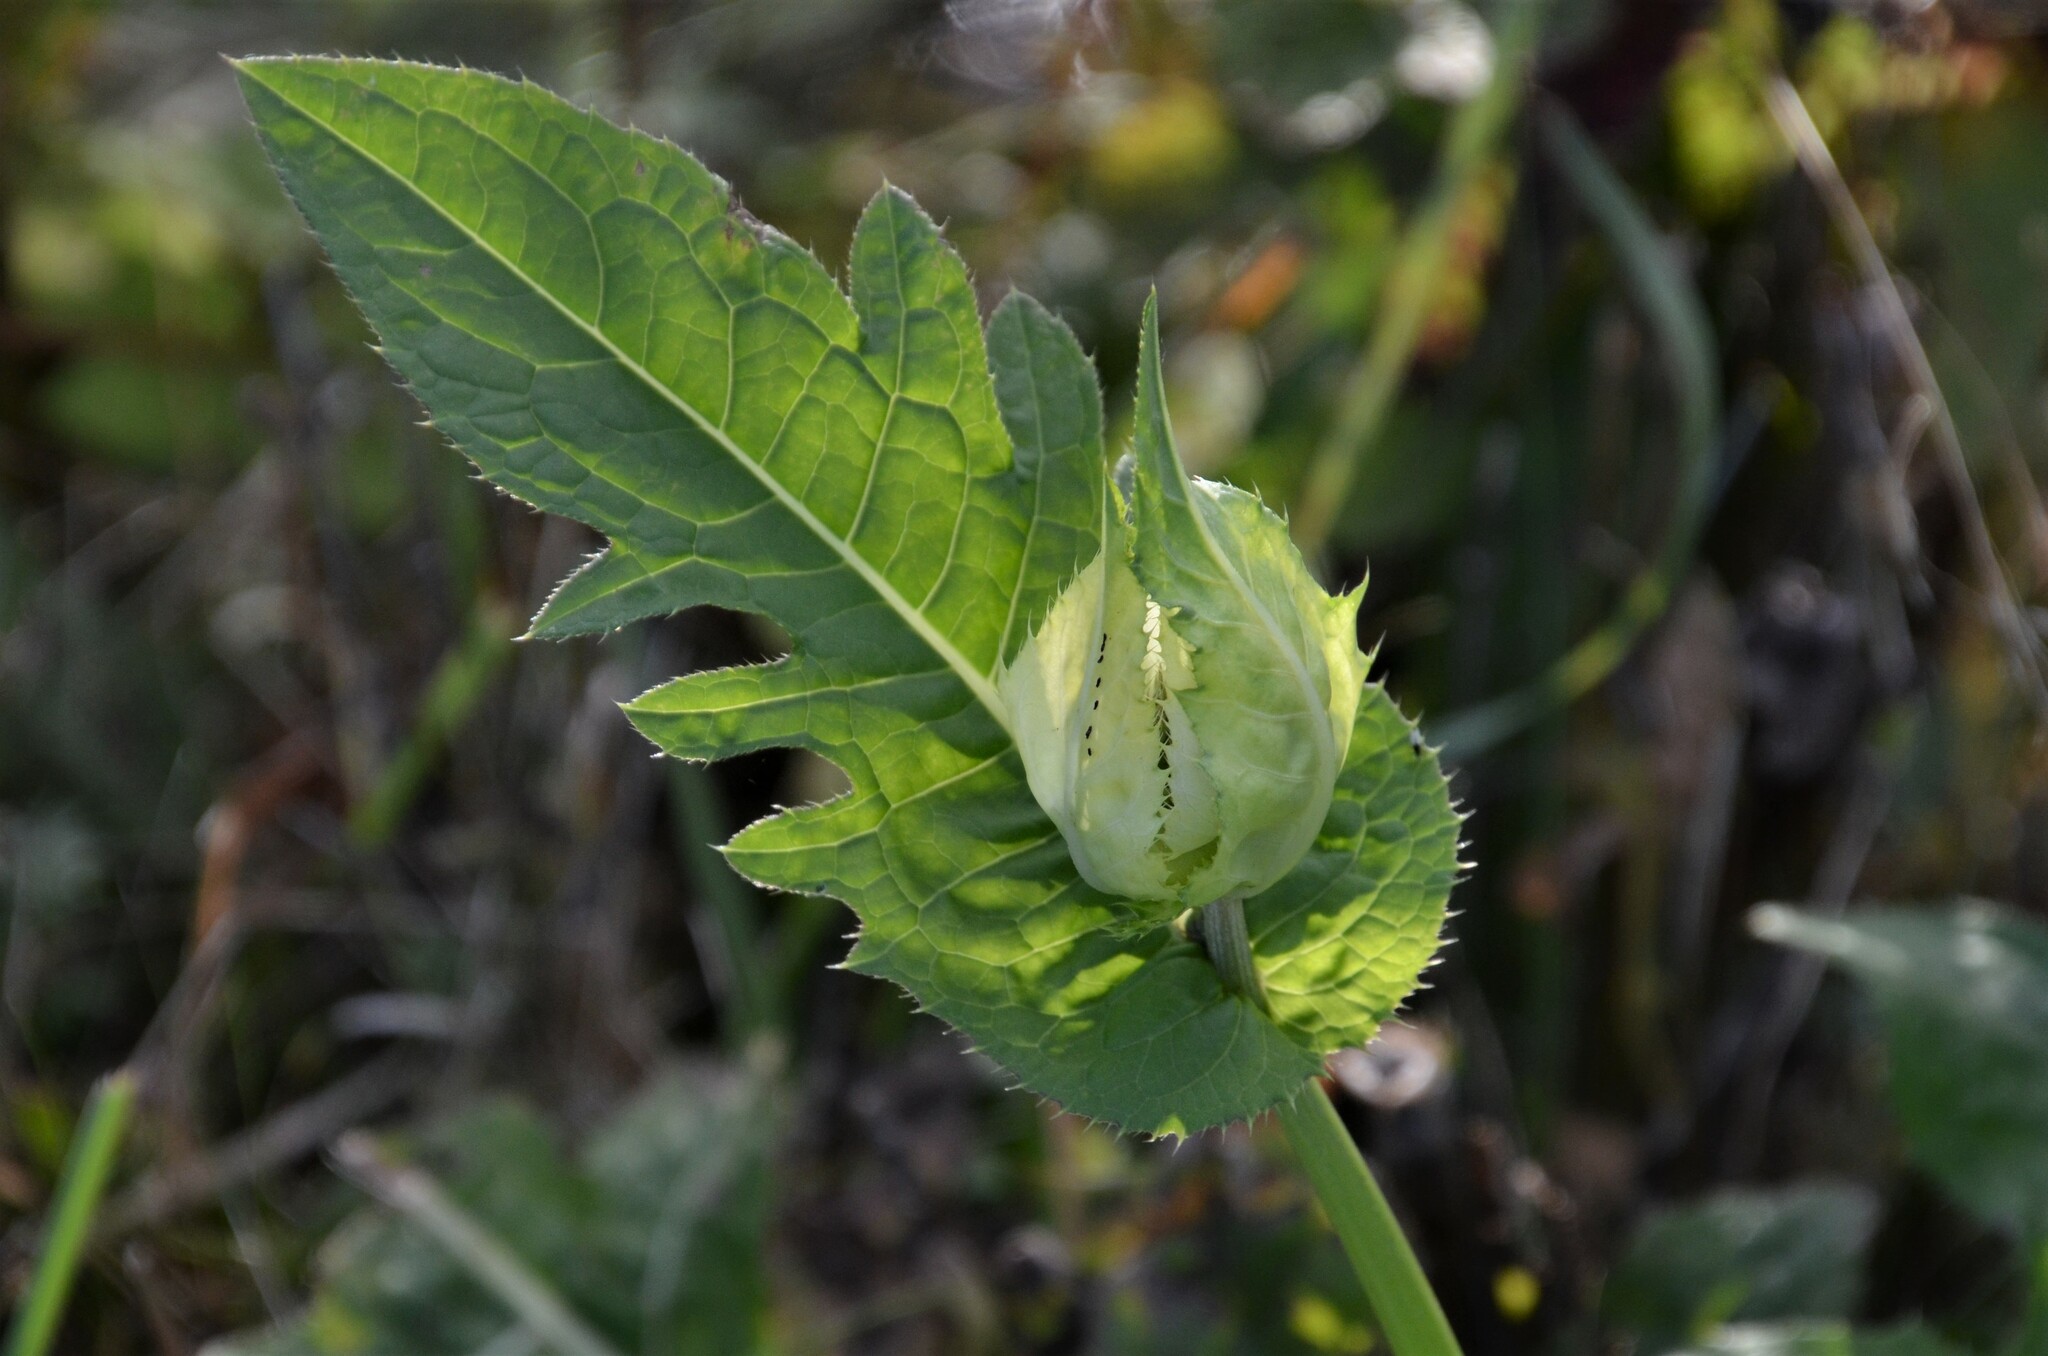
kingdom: Plantae
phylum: Tracheophyta
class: Magnoliopsida
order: Asterales
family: Asteraceae
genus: Cirsium
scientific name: Cirsium oleraceum
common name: Cabbage thistle
